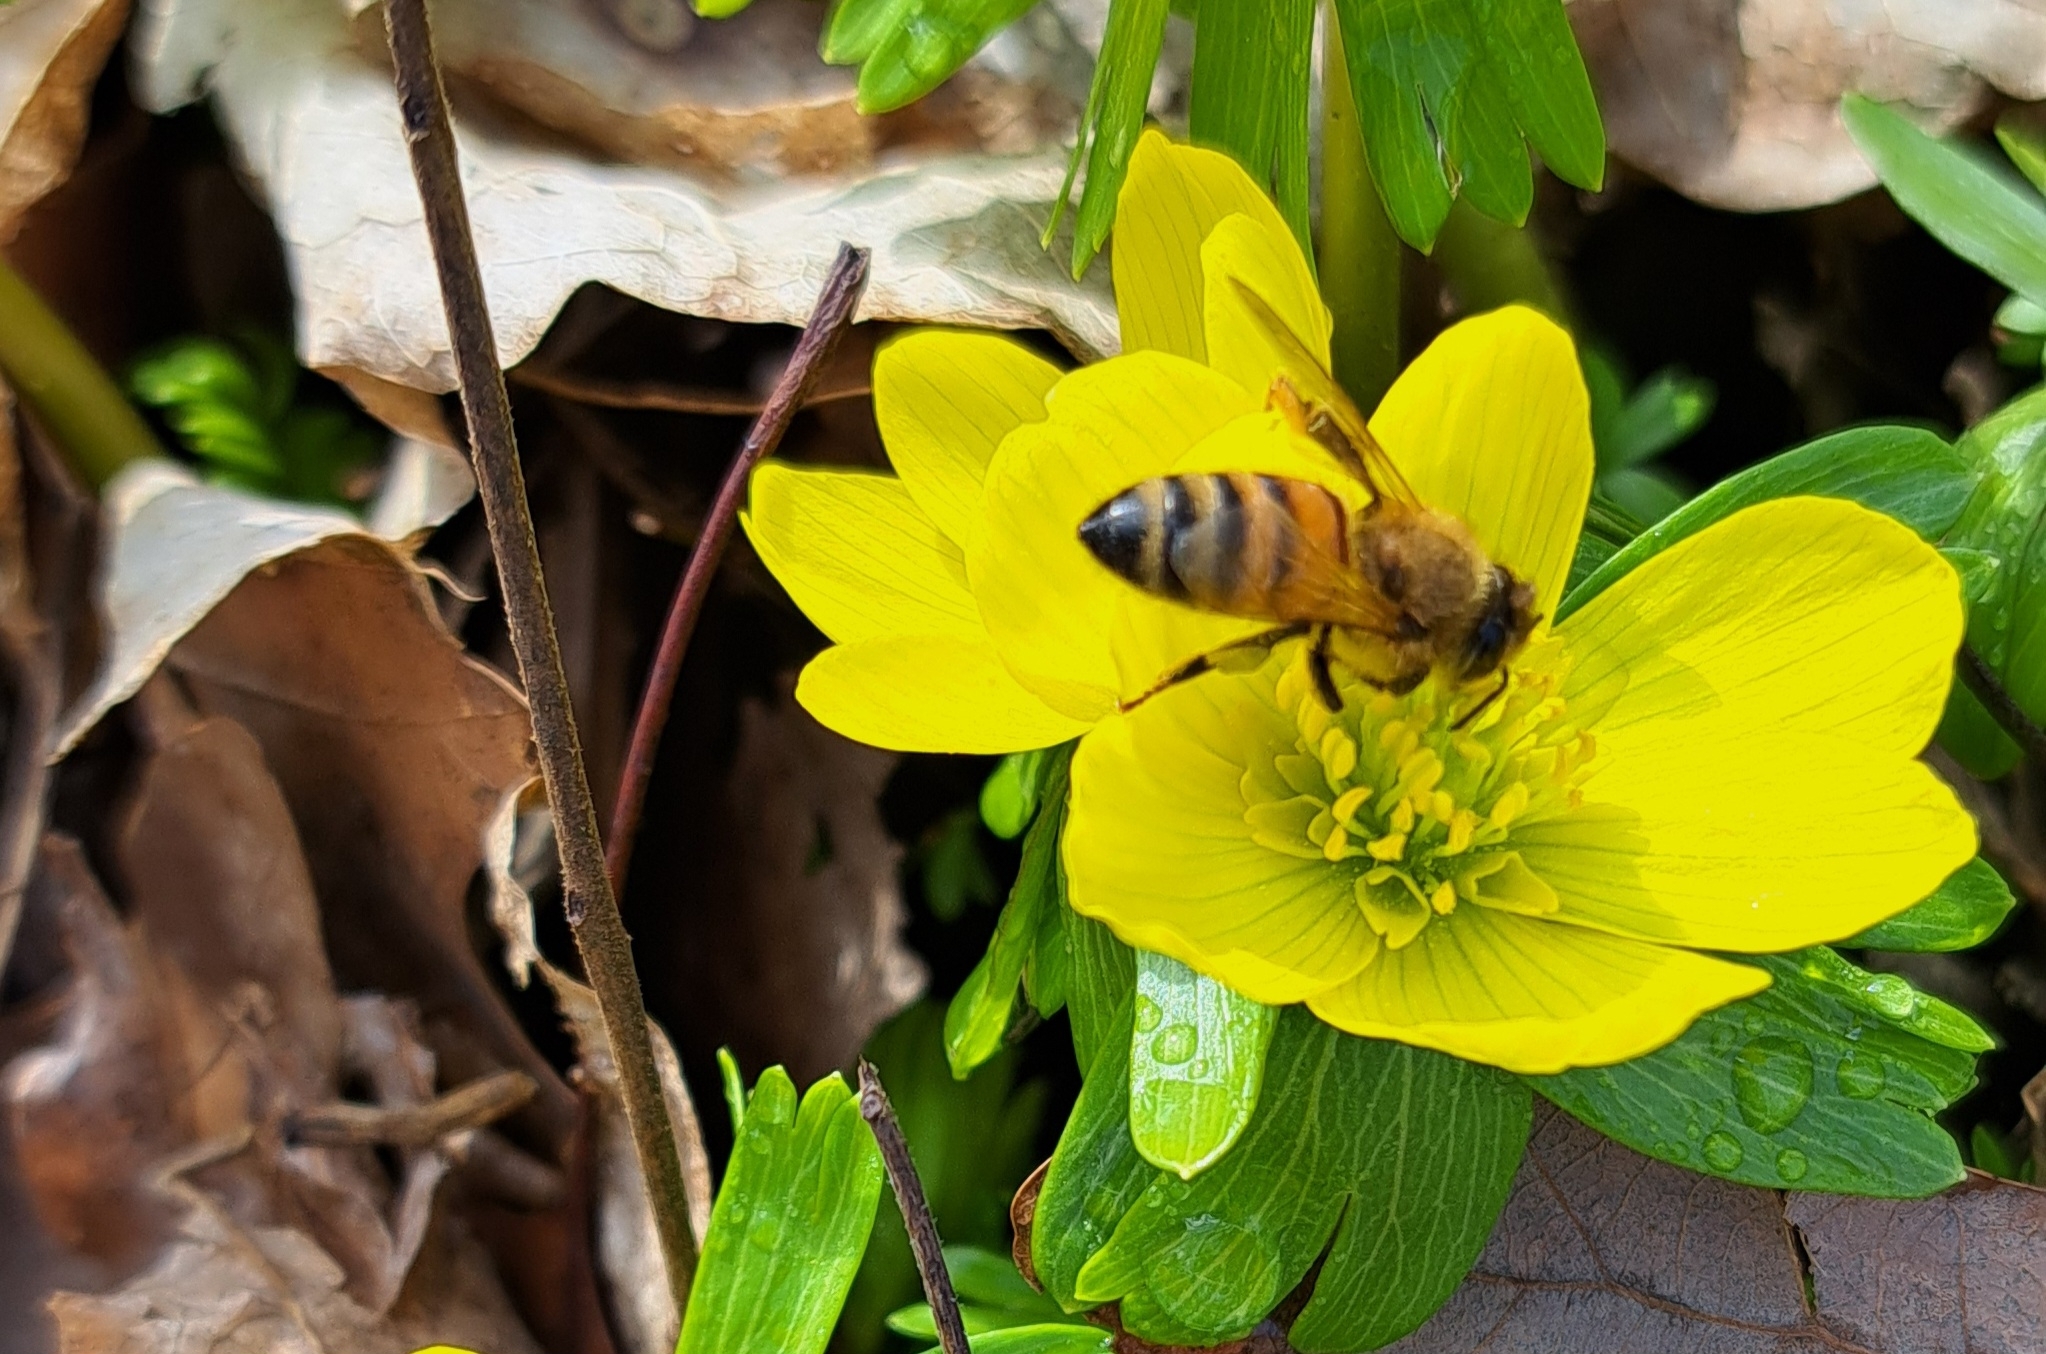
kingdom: Animalia
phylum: Arthropoda
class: Insecta
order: Hymenoptera
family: Apidae
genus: Apis
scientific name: Apis mellifera
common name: Honey bee
